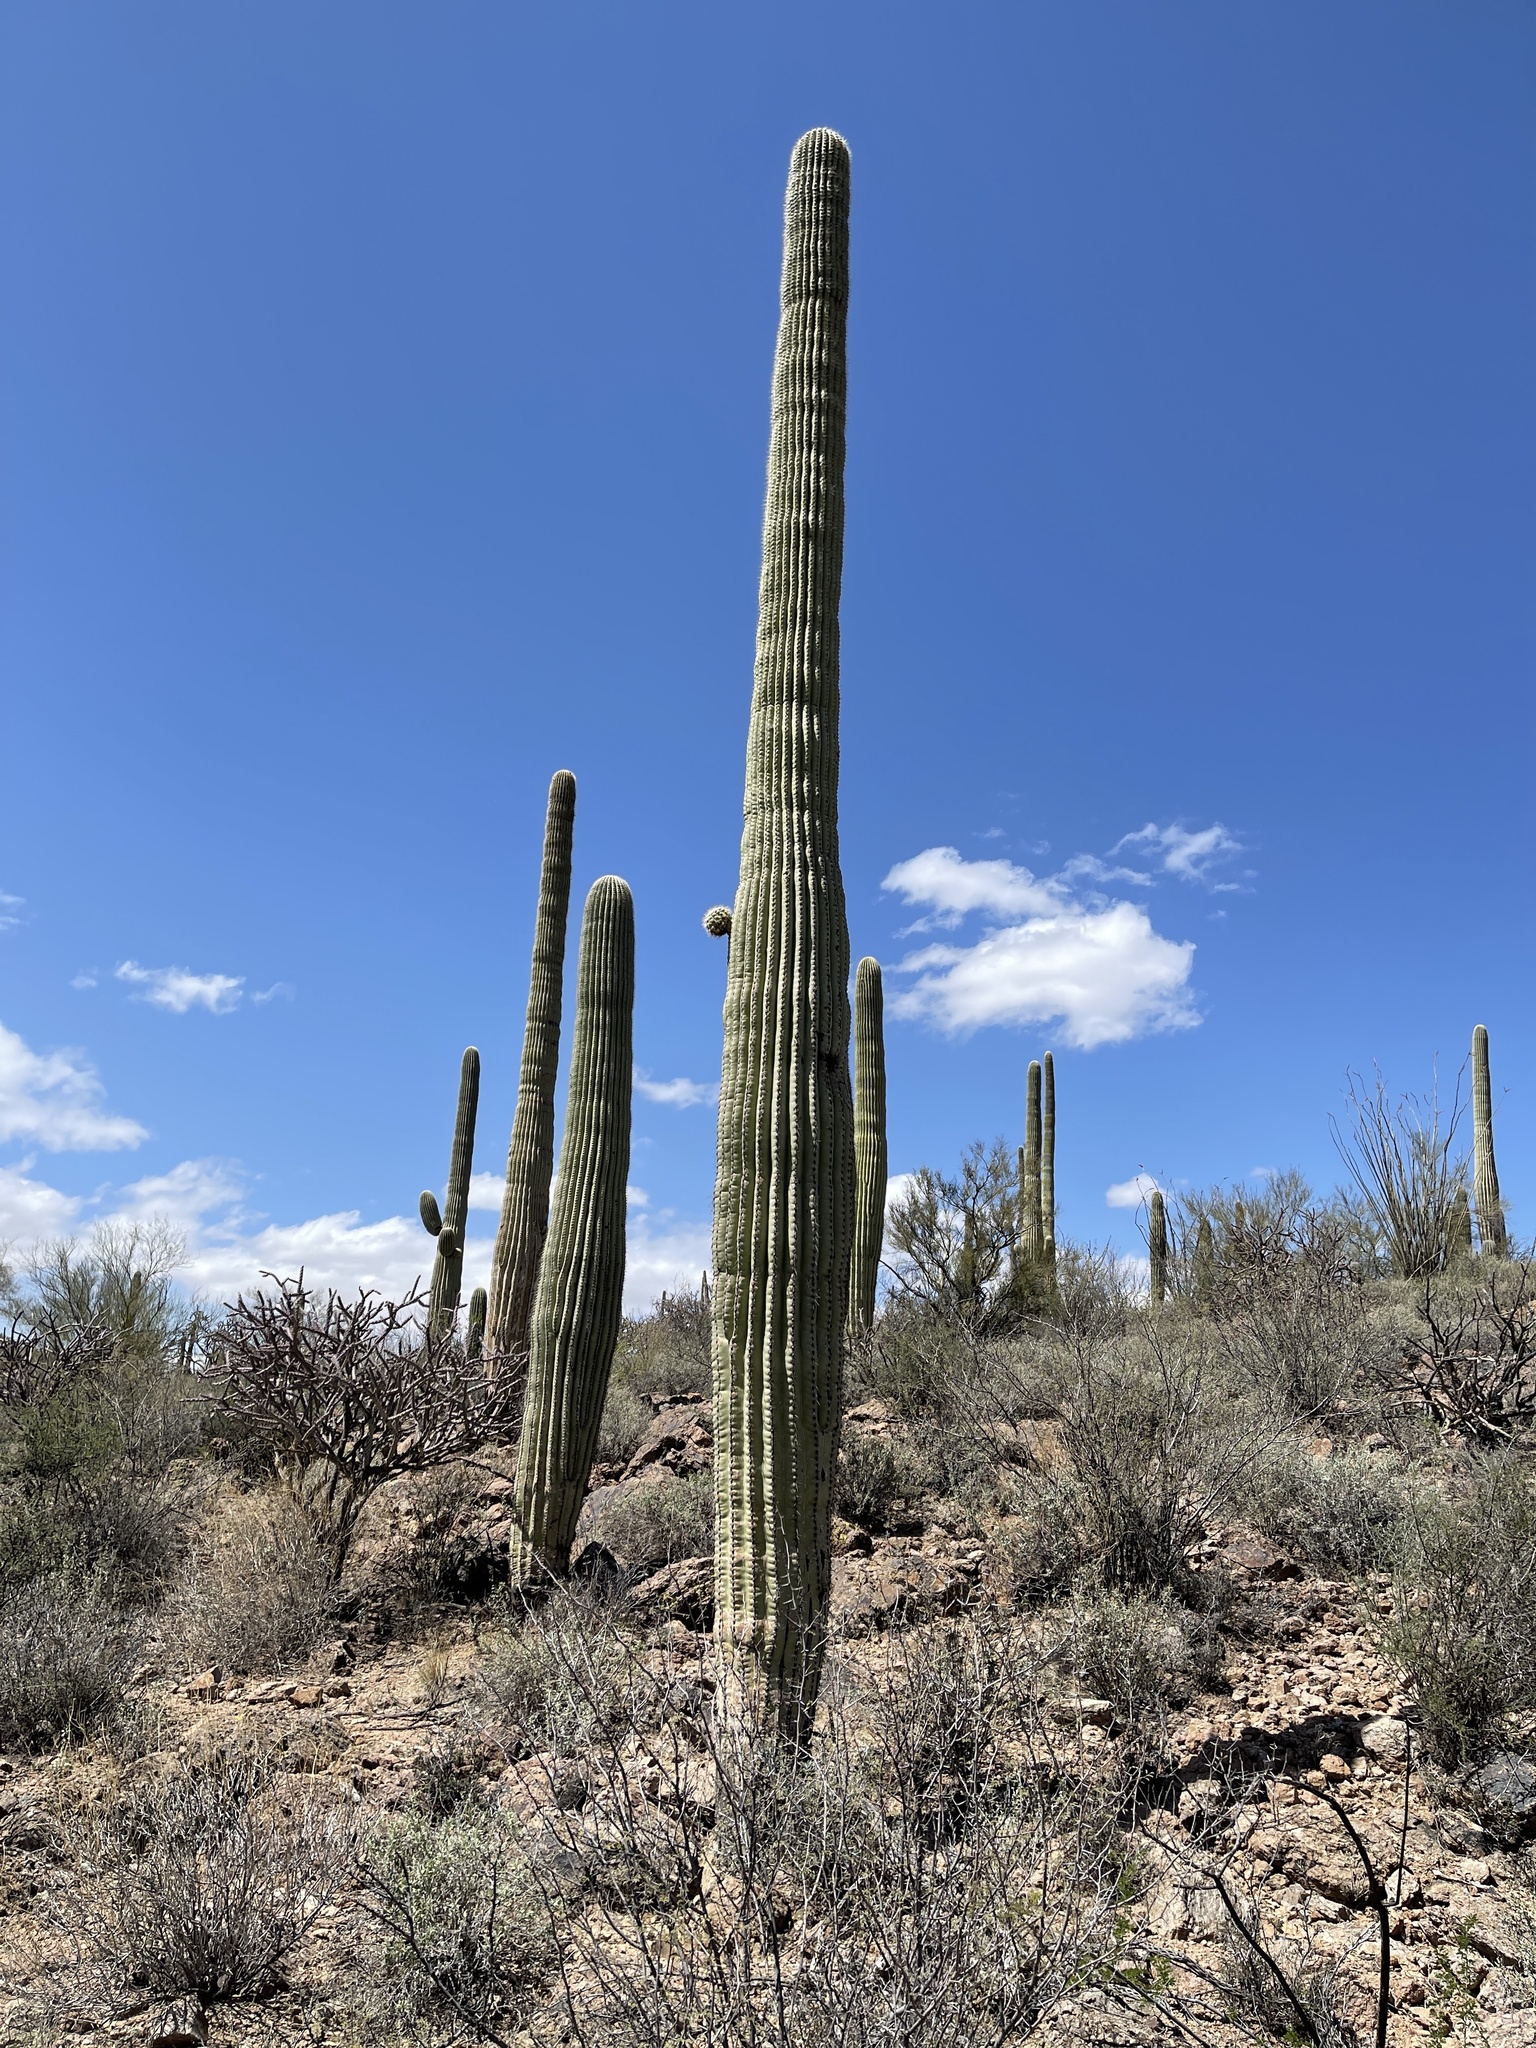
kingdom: Plantae
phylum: Tracheophyta
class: Magnoliopsida
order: Caryophyllales
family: Cactaceae
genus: Carnegiea
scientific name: Carnegiea gigantea
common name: Saguaro
